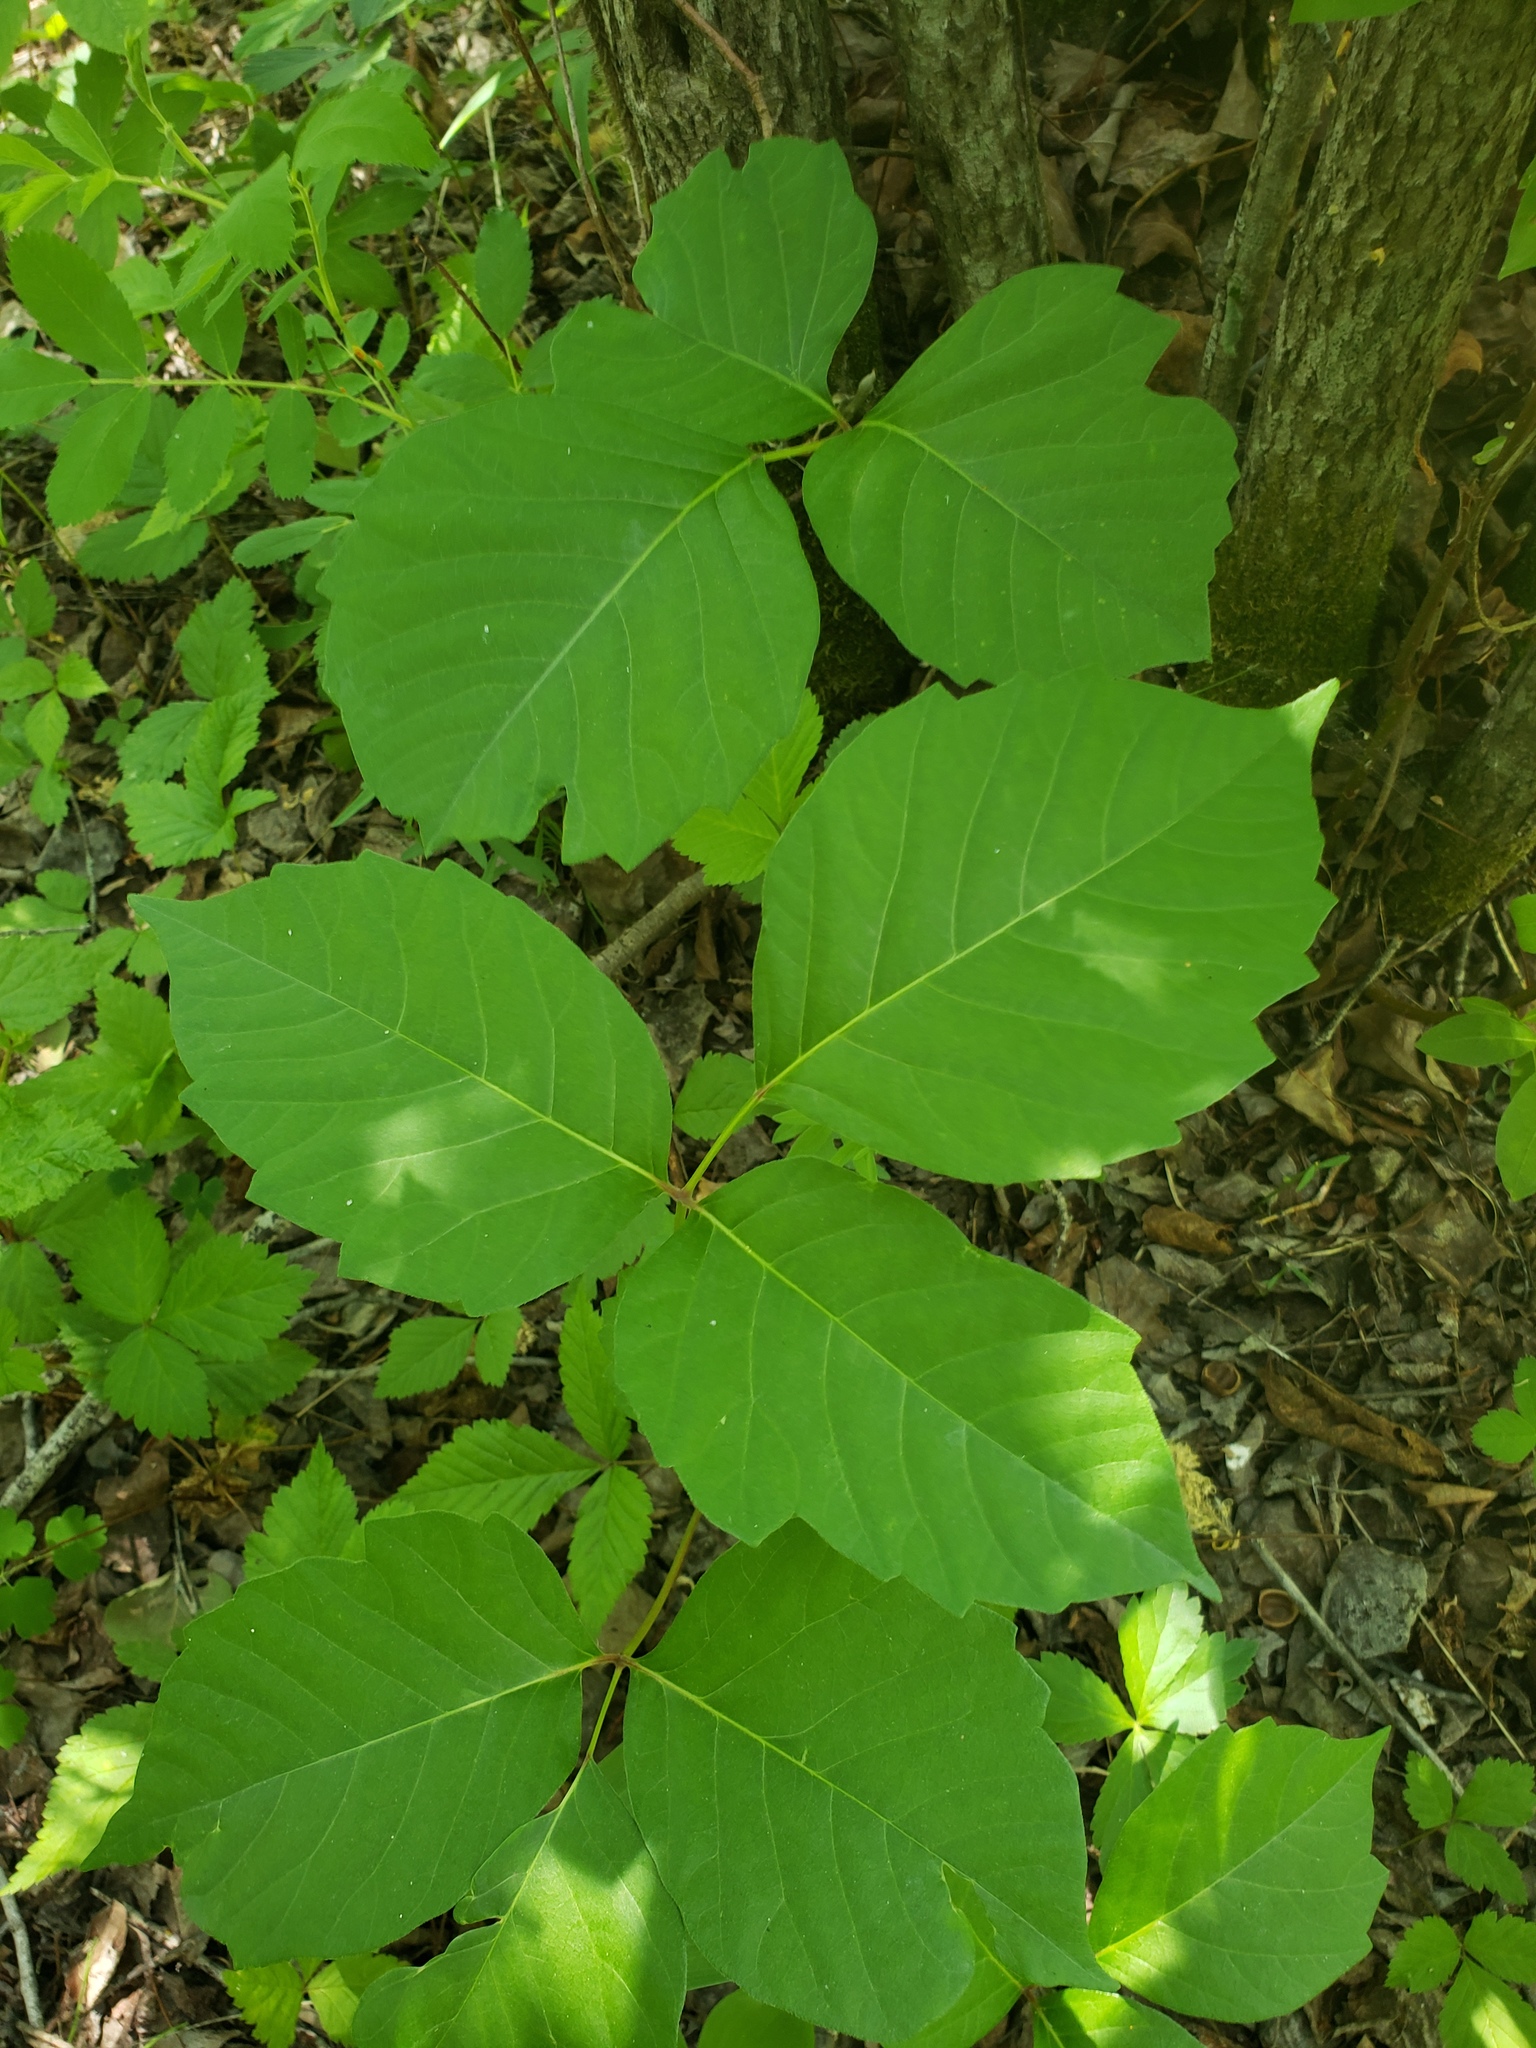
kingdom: Plantae
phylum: Tracheophyta
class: Magnoliopsida
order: Sapindales
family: Anacardiaceae
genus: Toxicodendron
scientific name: Toxicodendron rydbergii
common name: Rydberg's poison-ivy
